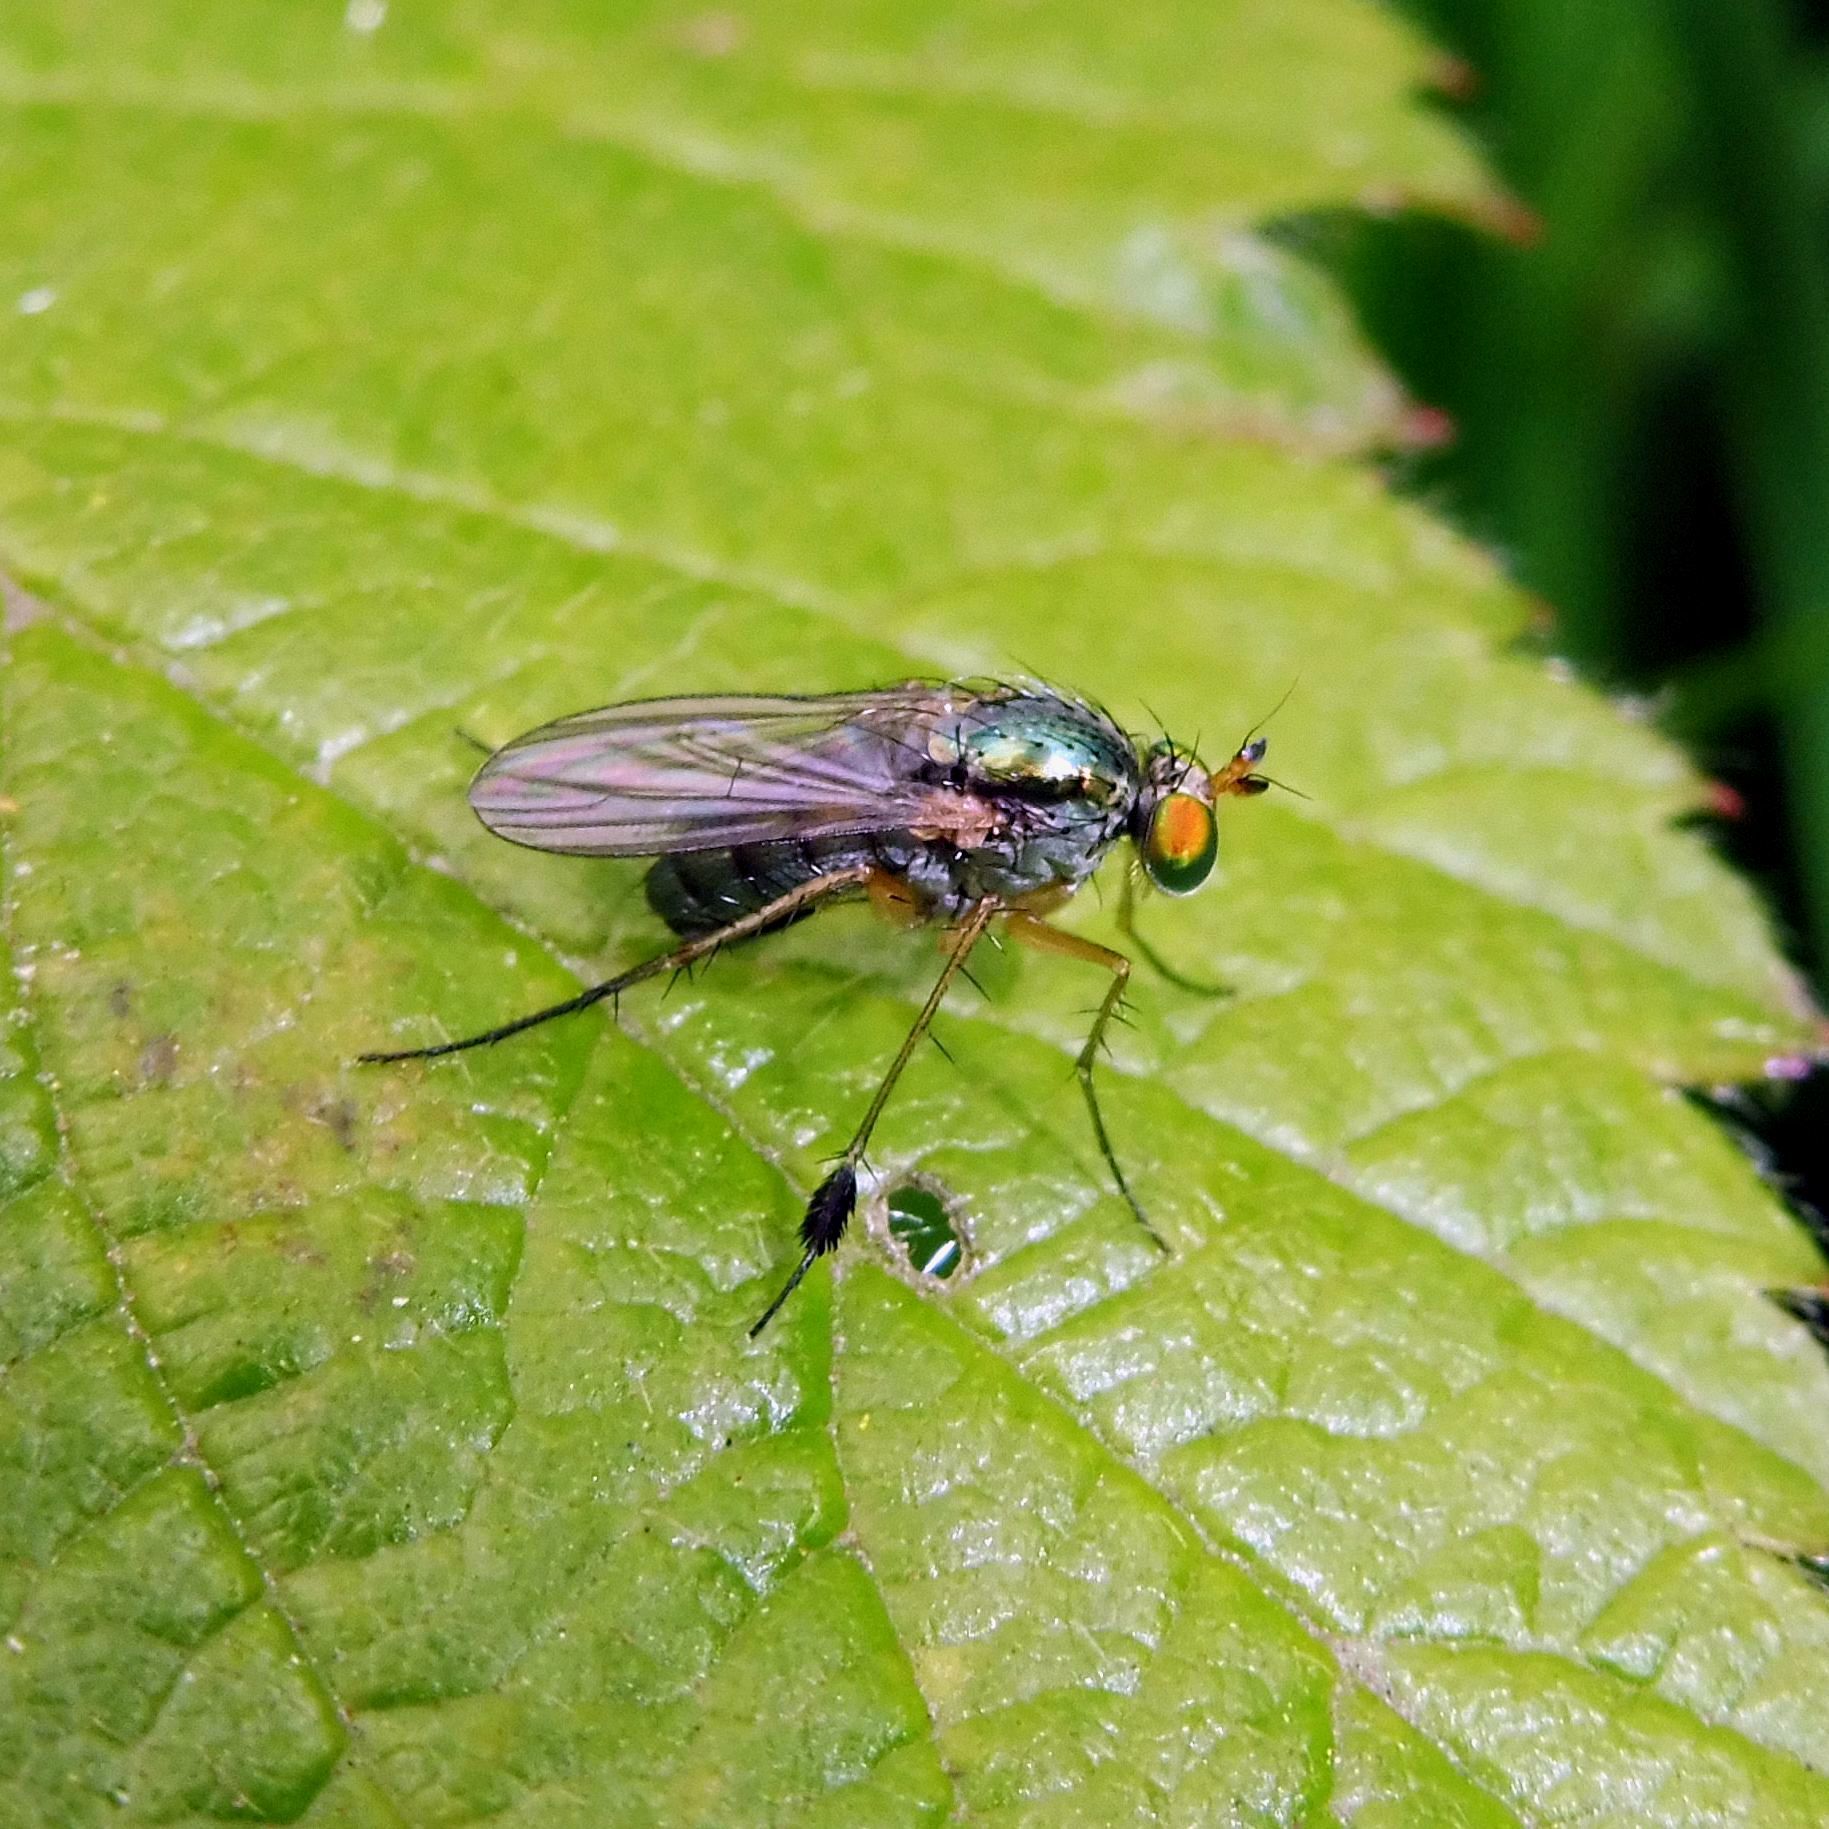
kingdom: Animalia
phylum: Arthropoda
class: Insecta
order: Diptera
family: Dolichopodidae
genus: Dolichopus
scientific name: Dolichopus wahlbergi
